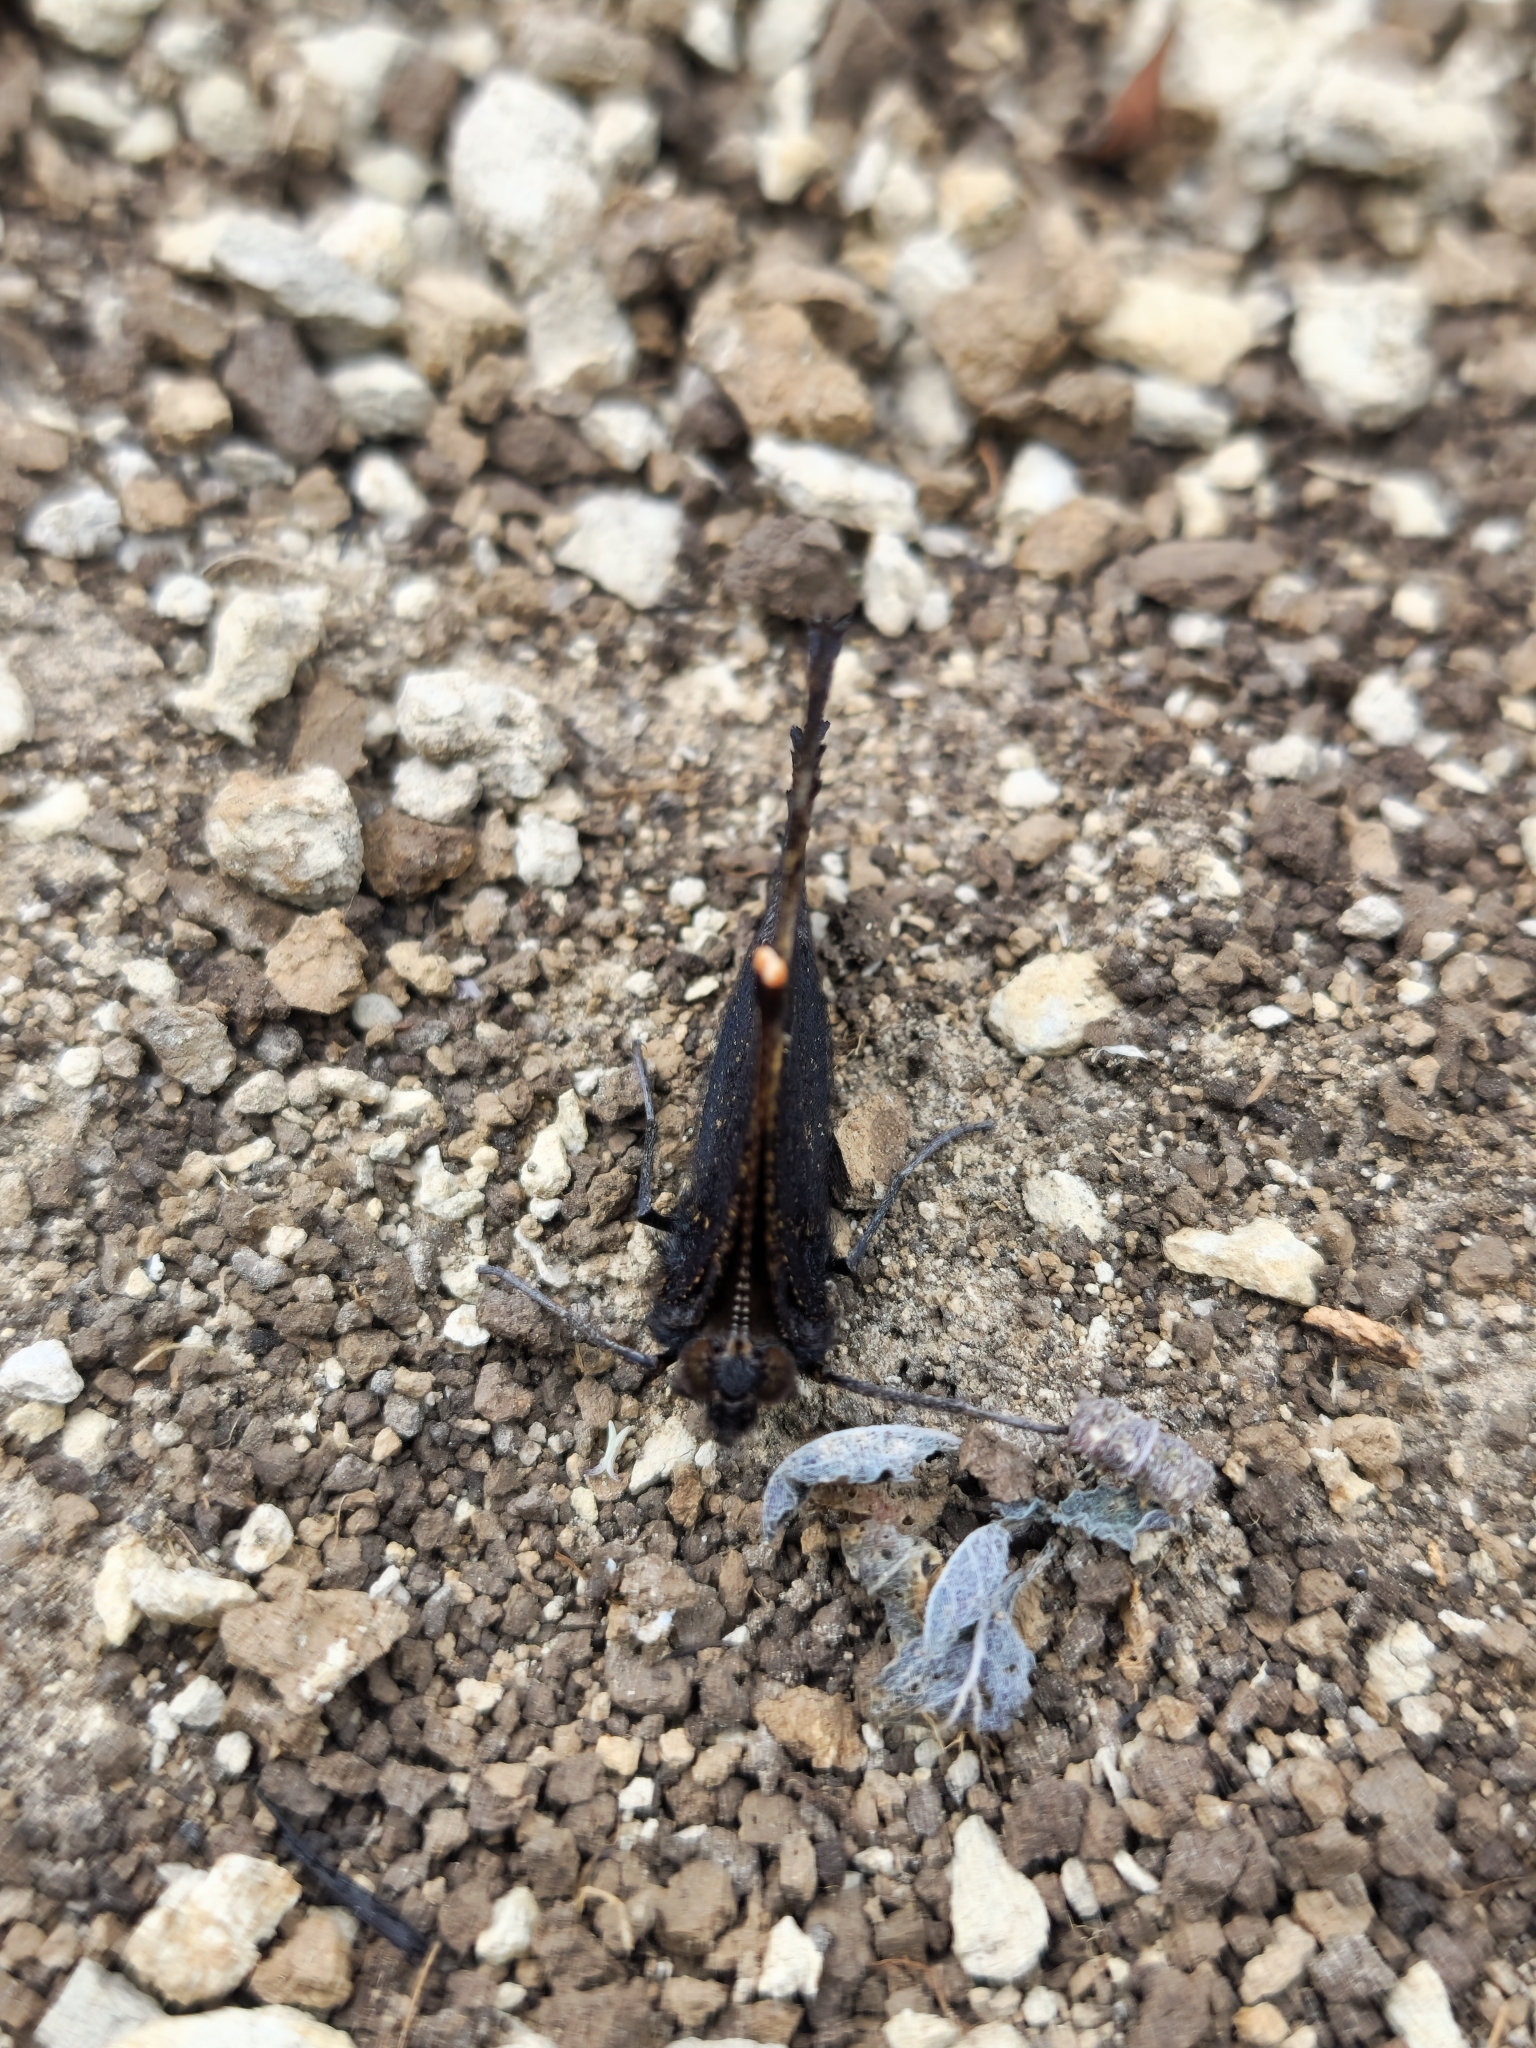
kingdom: Animalia
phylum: Arthropoda
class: Insecta
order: Lepidoptera
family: Nymphalidae
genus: Aglais
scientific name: Aglais urticae
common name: Small tortoiseshell
